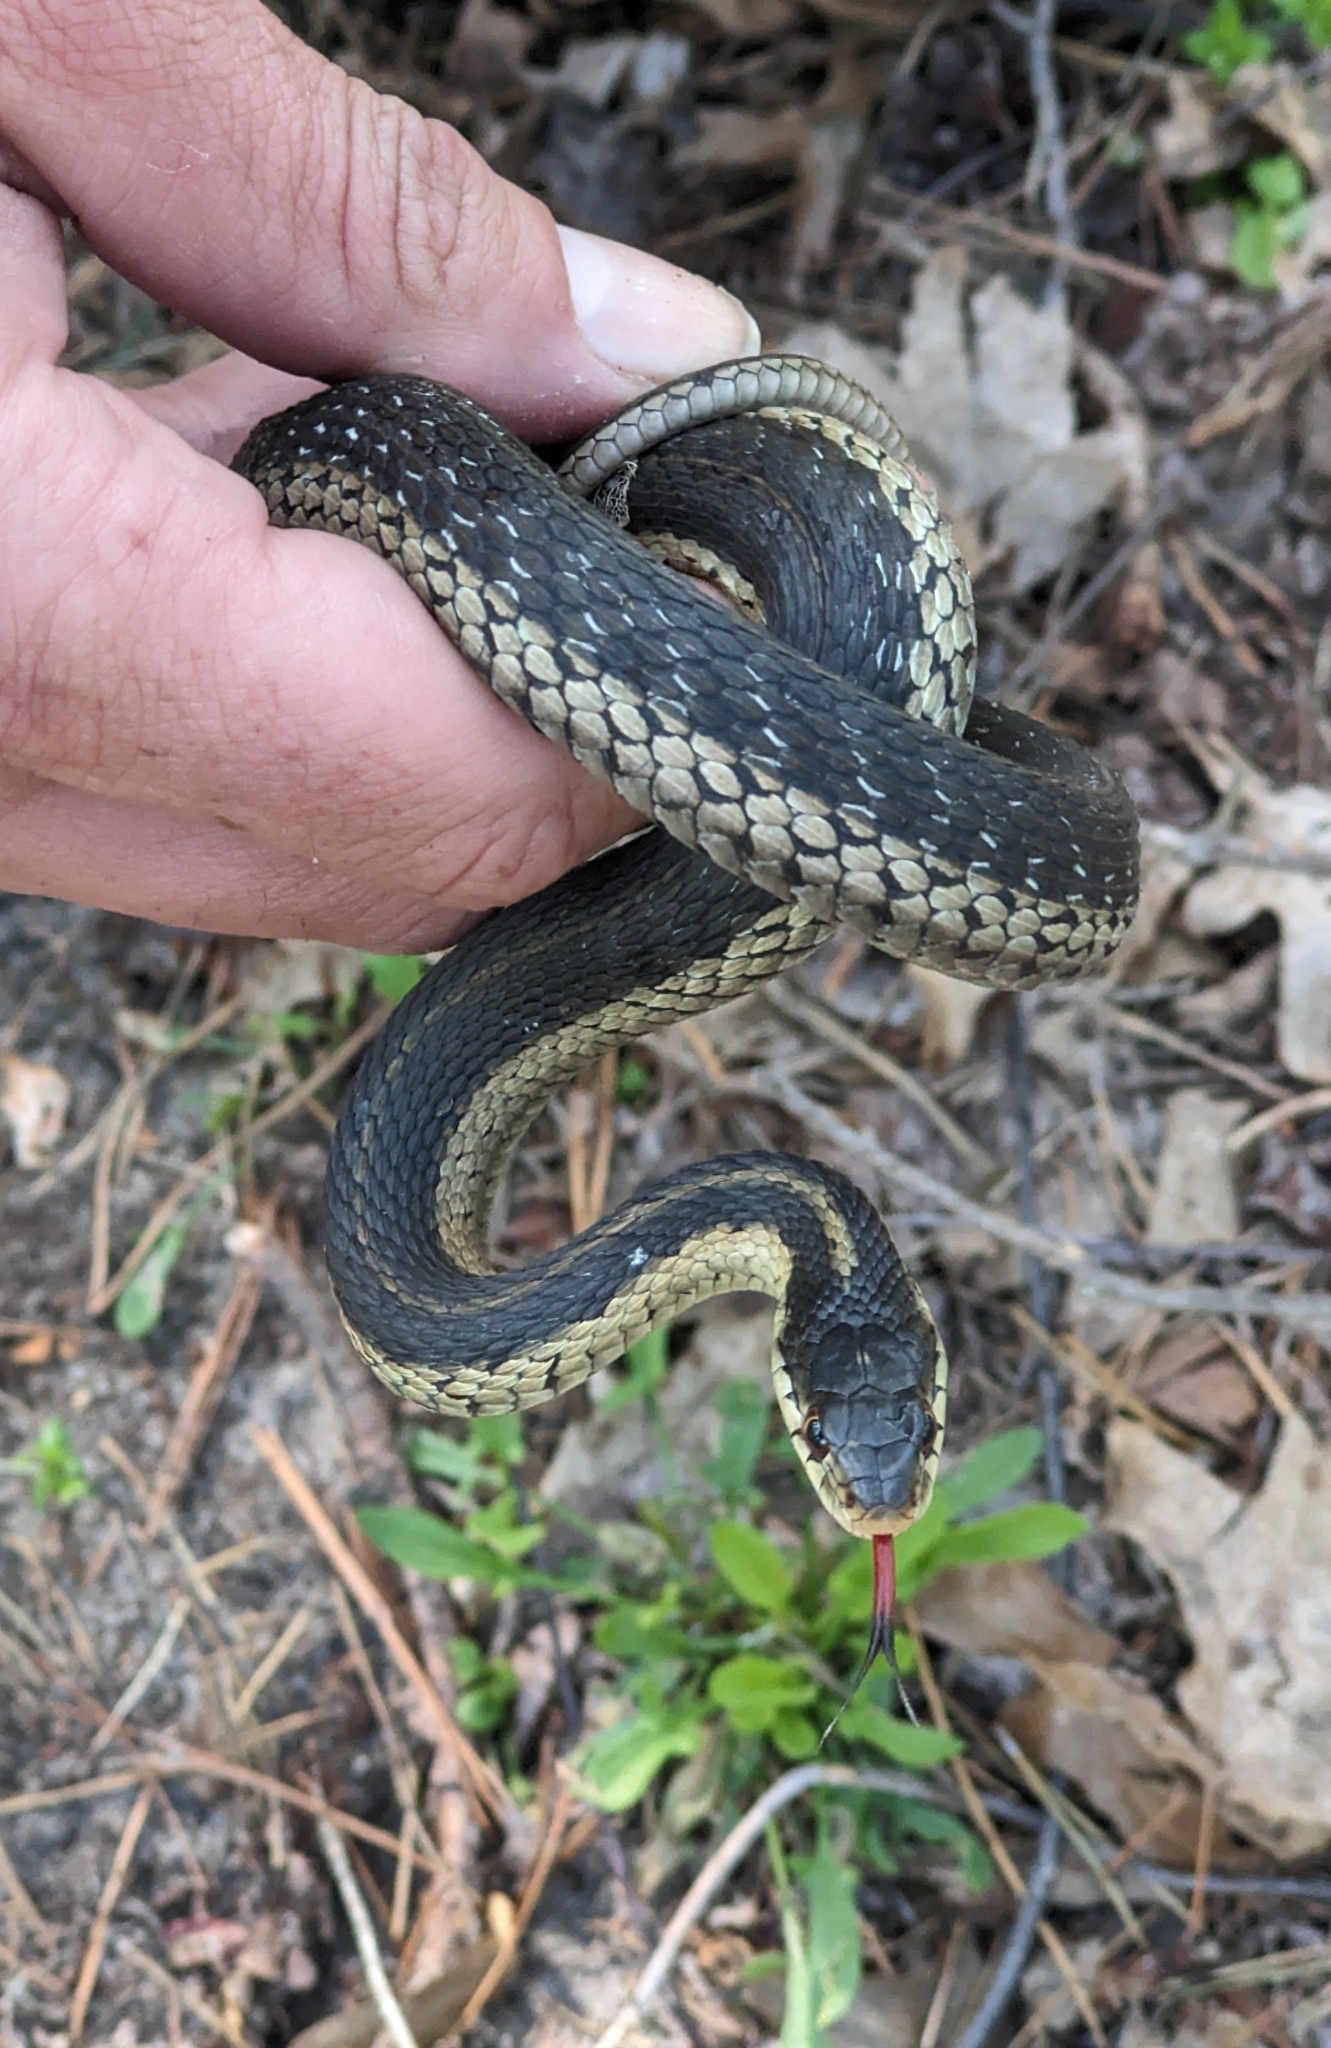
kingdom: Animalia
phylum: Chordata
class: Squamata
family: Colubridae
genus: Thamnophis
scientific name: Thamnophis sirtalis
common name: Common garter snake
